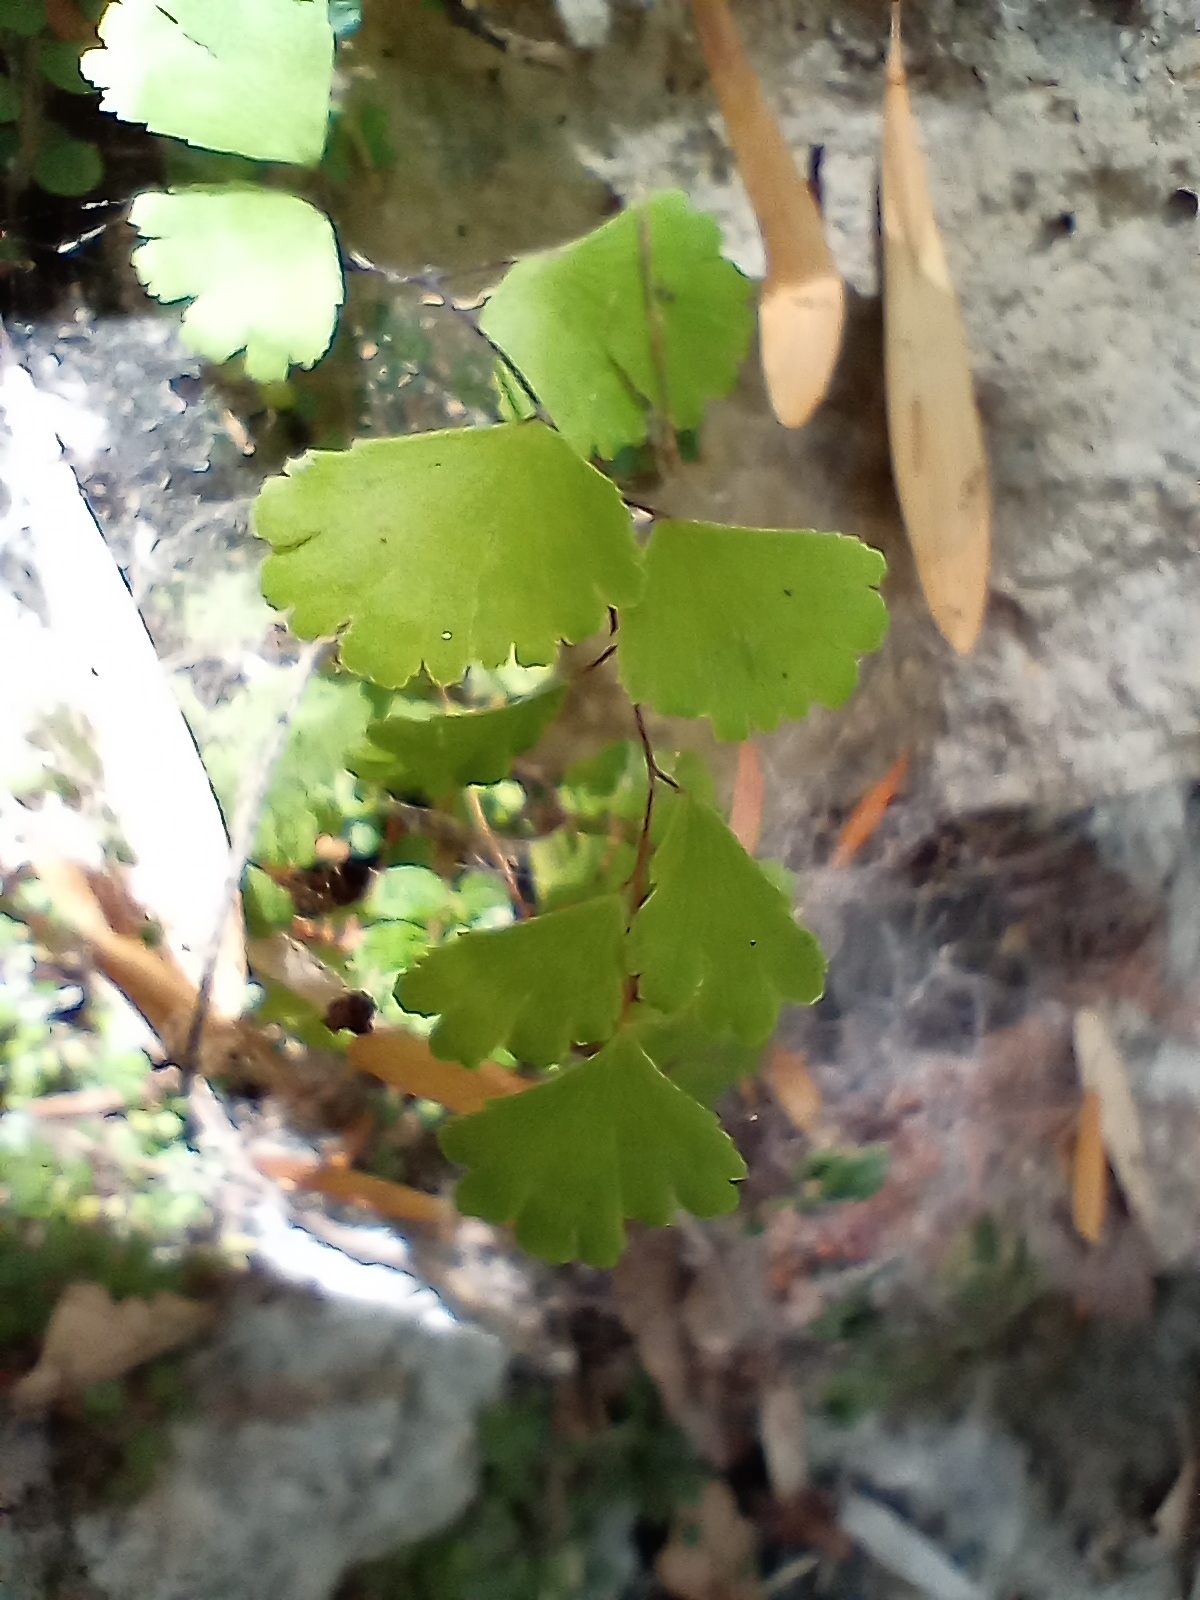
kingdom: Plantae
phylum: Tracheophyta
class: Polypodiopsida
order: Polypodiales
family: Pteridaceae
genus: Adiantum
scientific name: Adiantum capillus-veneris
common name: Maidenhair fern
